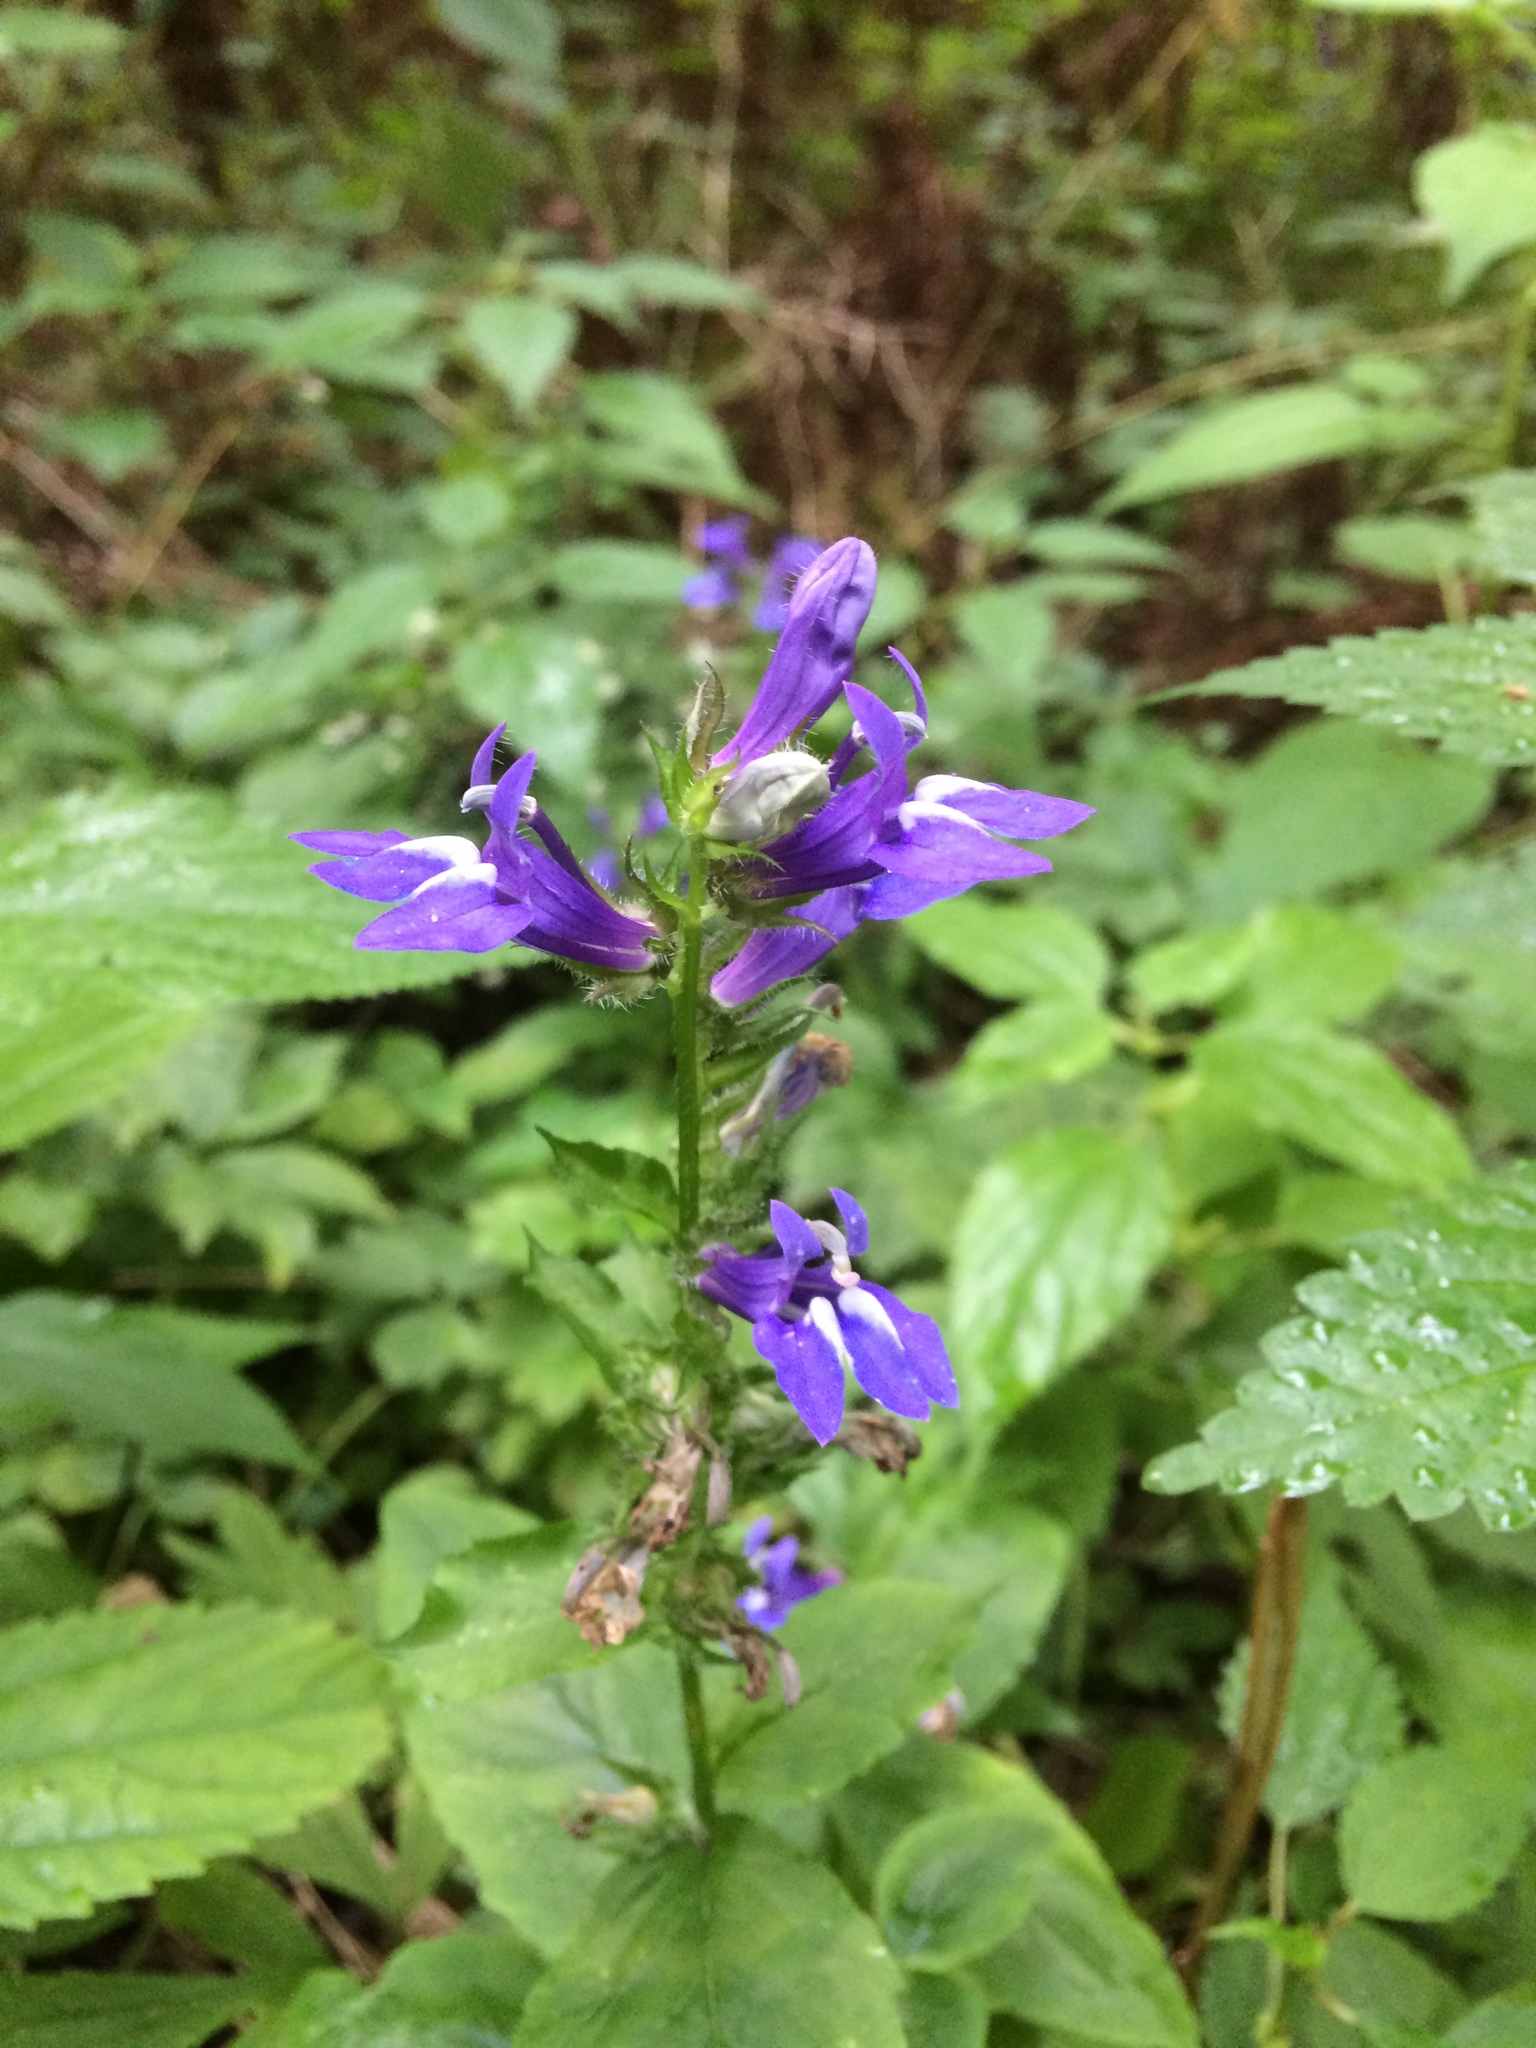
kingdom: Plantae
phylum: Tracheophyta
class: Magnoliopsida
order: Asterales
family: Campanulaceae
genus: Lobelia
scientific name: Lobelia siphilitica
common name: Great lobelia
